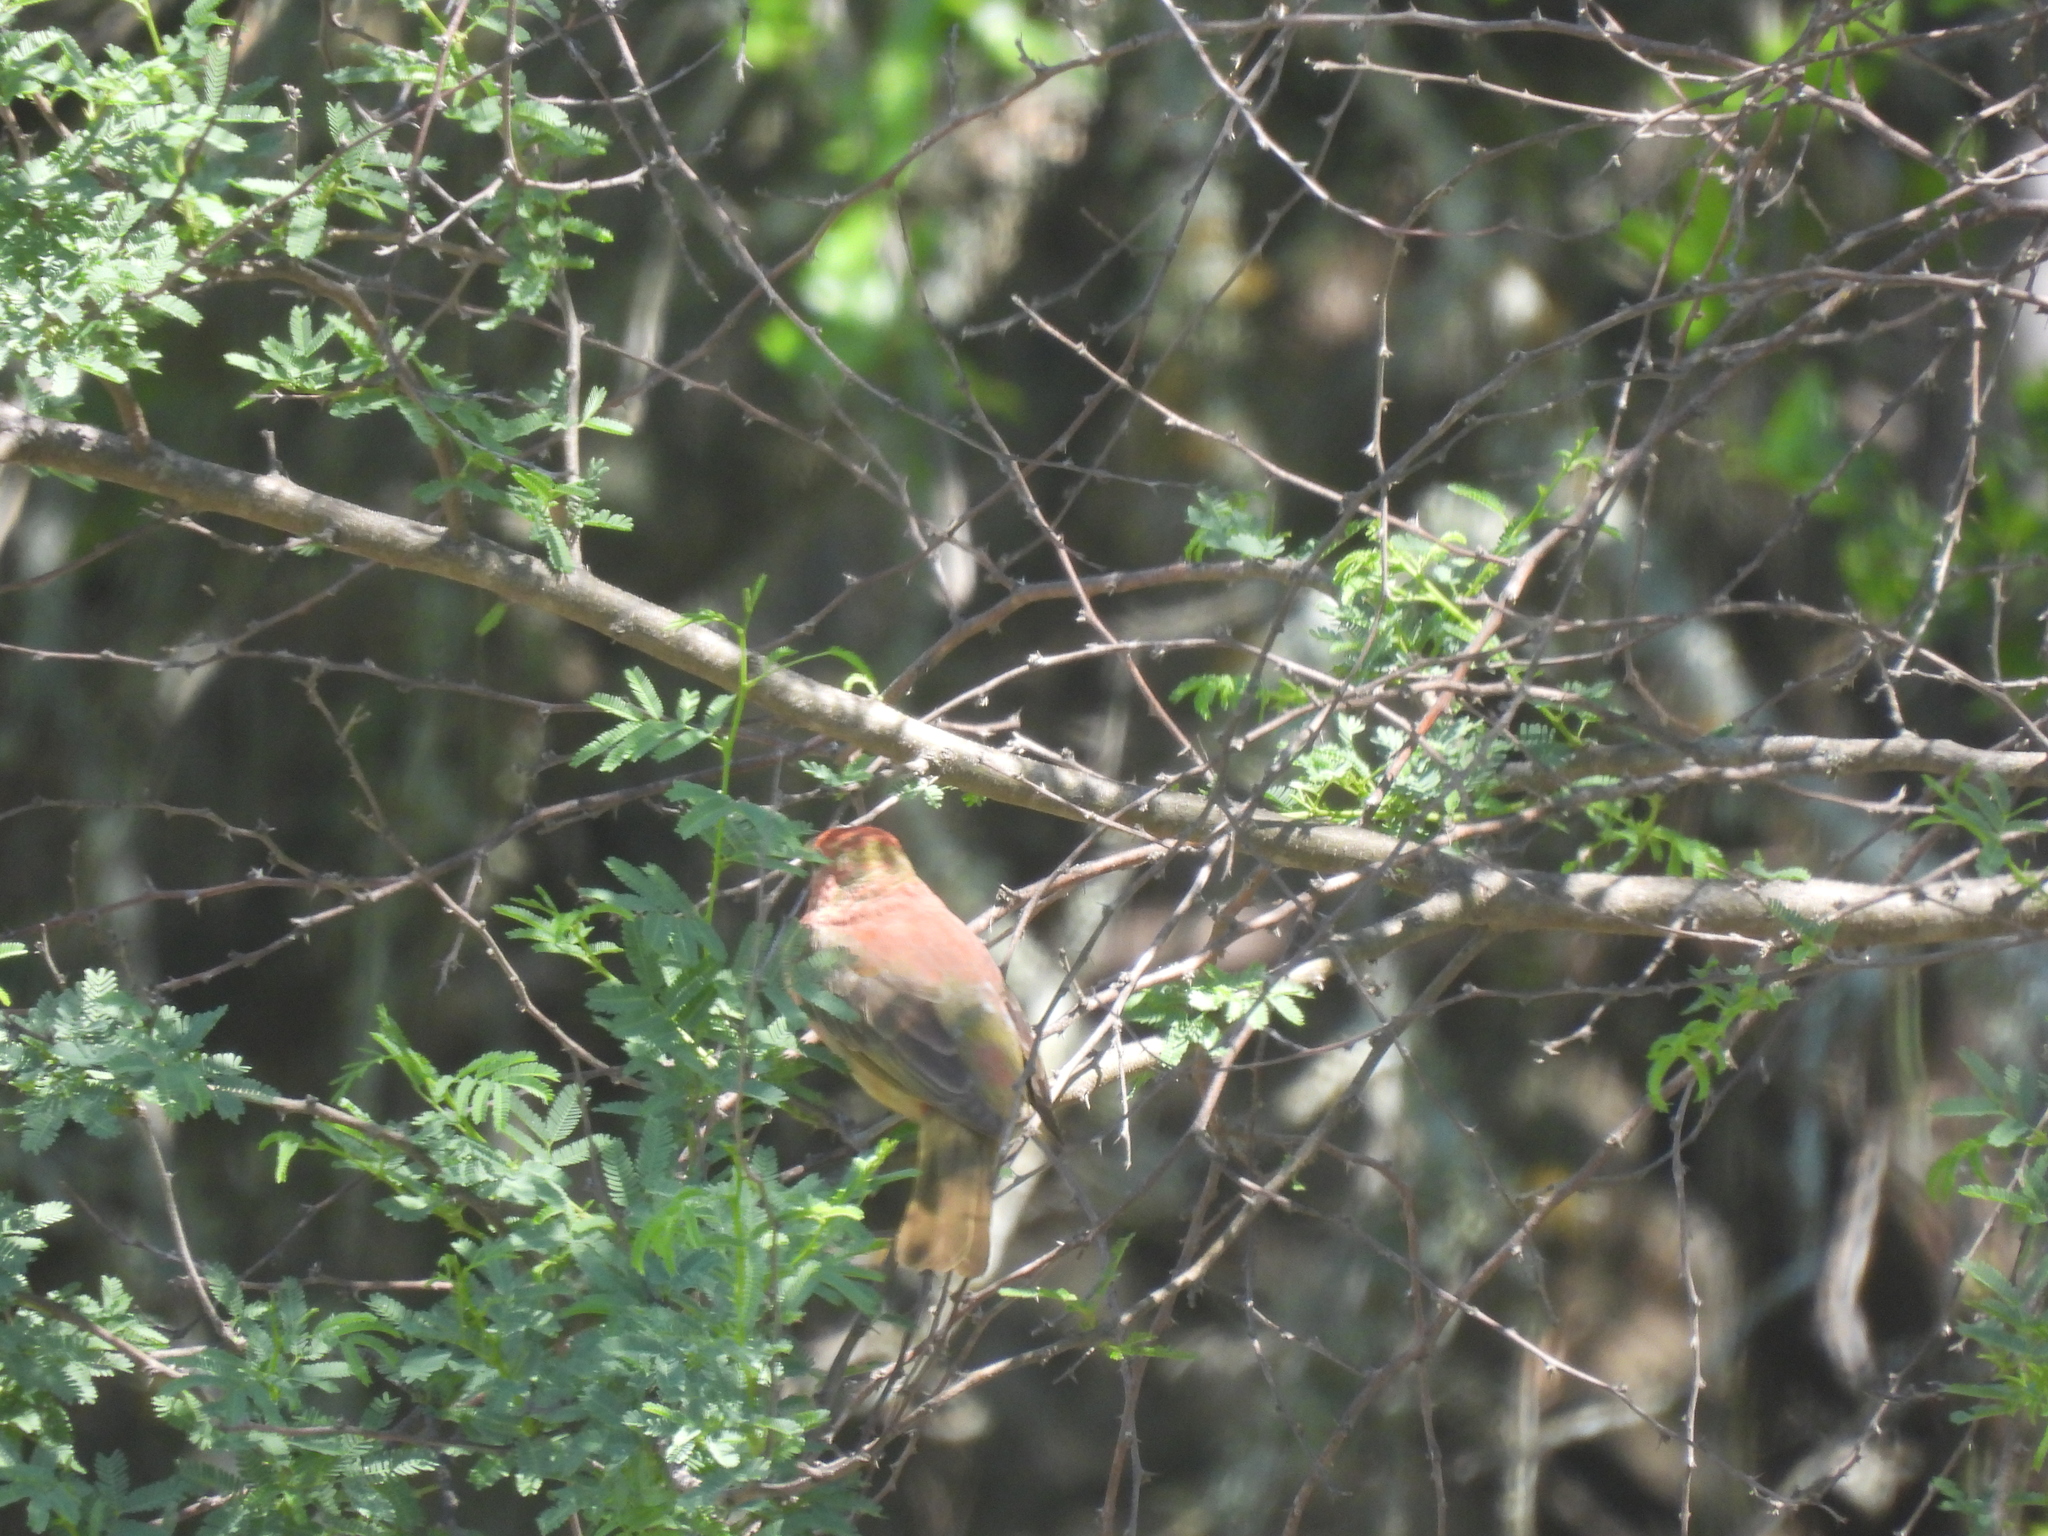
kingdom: Animalia
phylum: Chordata
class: Aves
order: Passeriformes
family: Cardinalidae
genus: Piranga
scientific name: Piranga rubra
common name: Summer tanager
